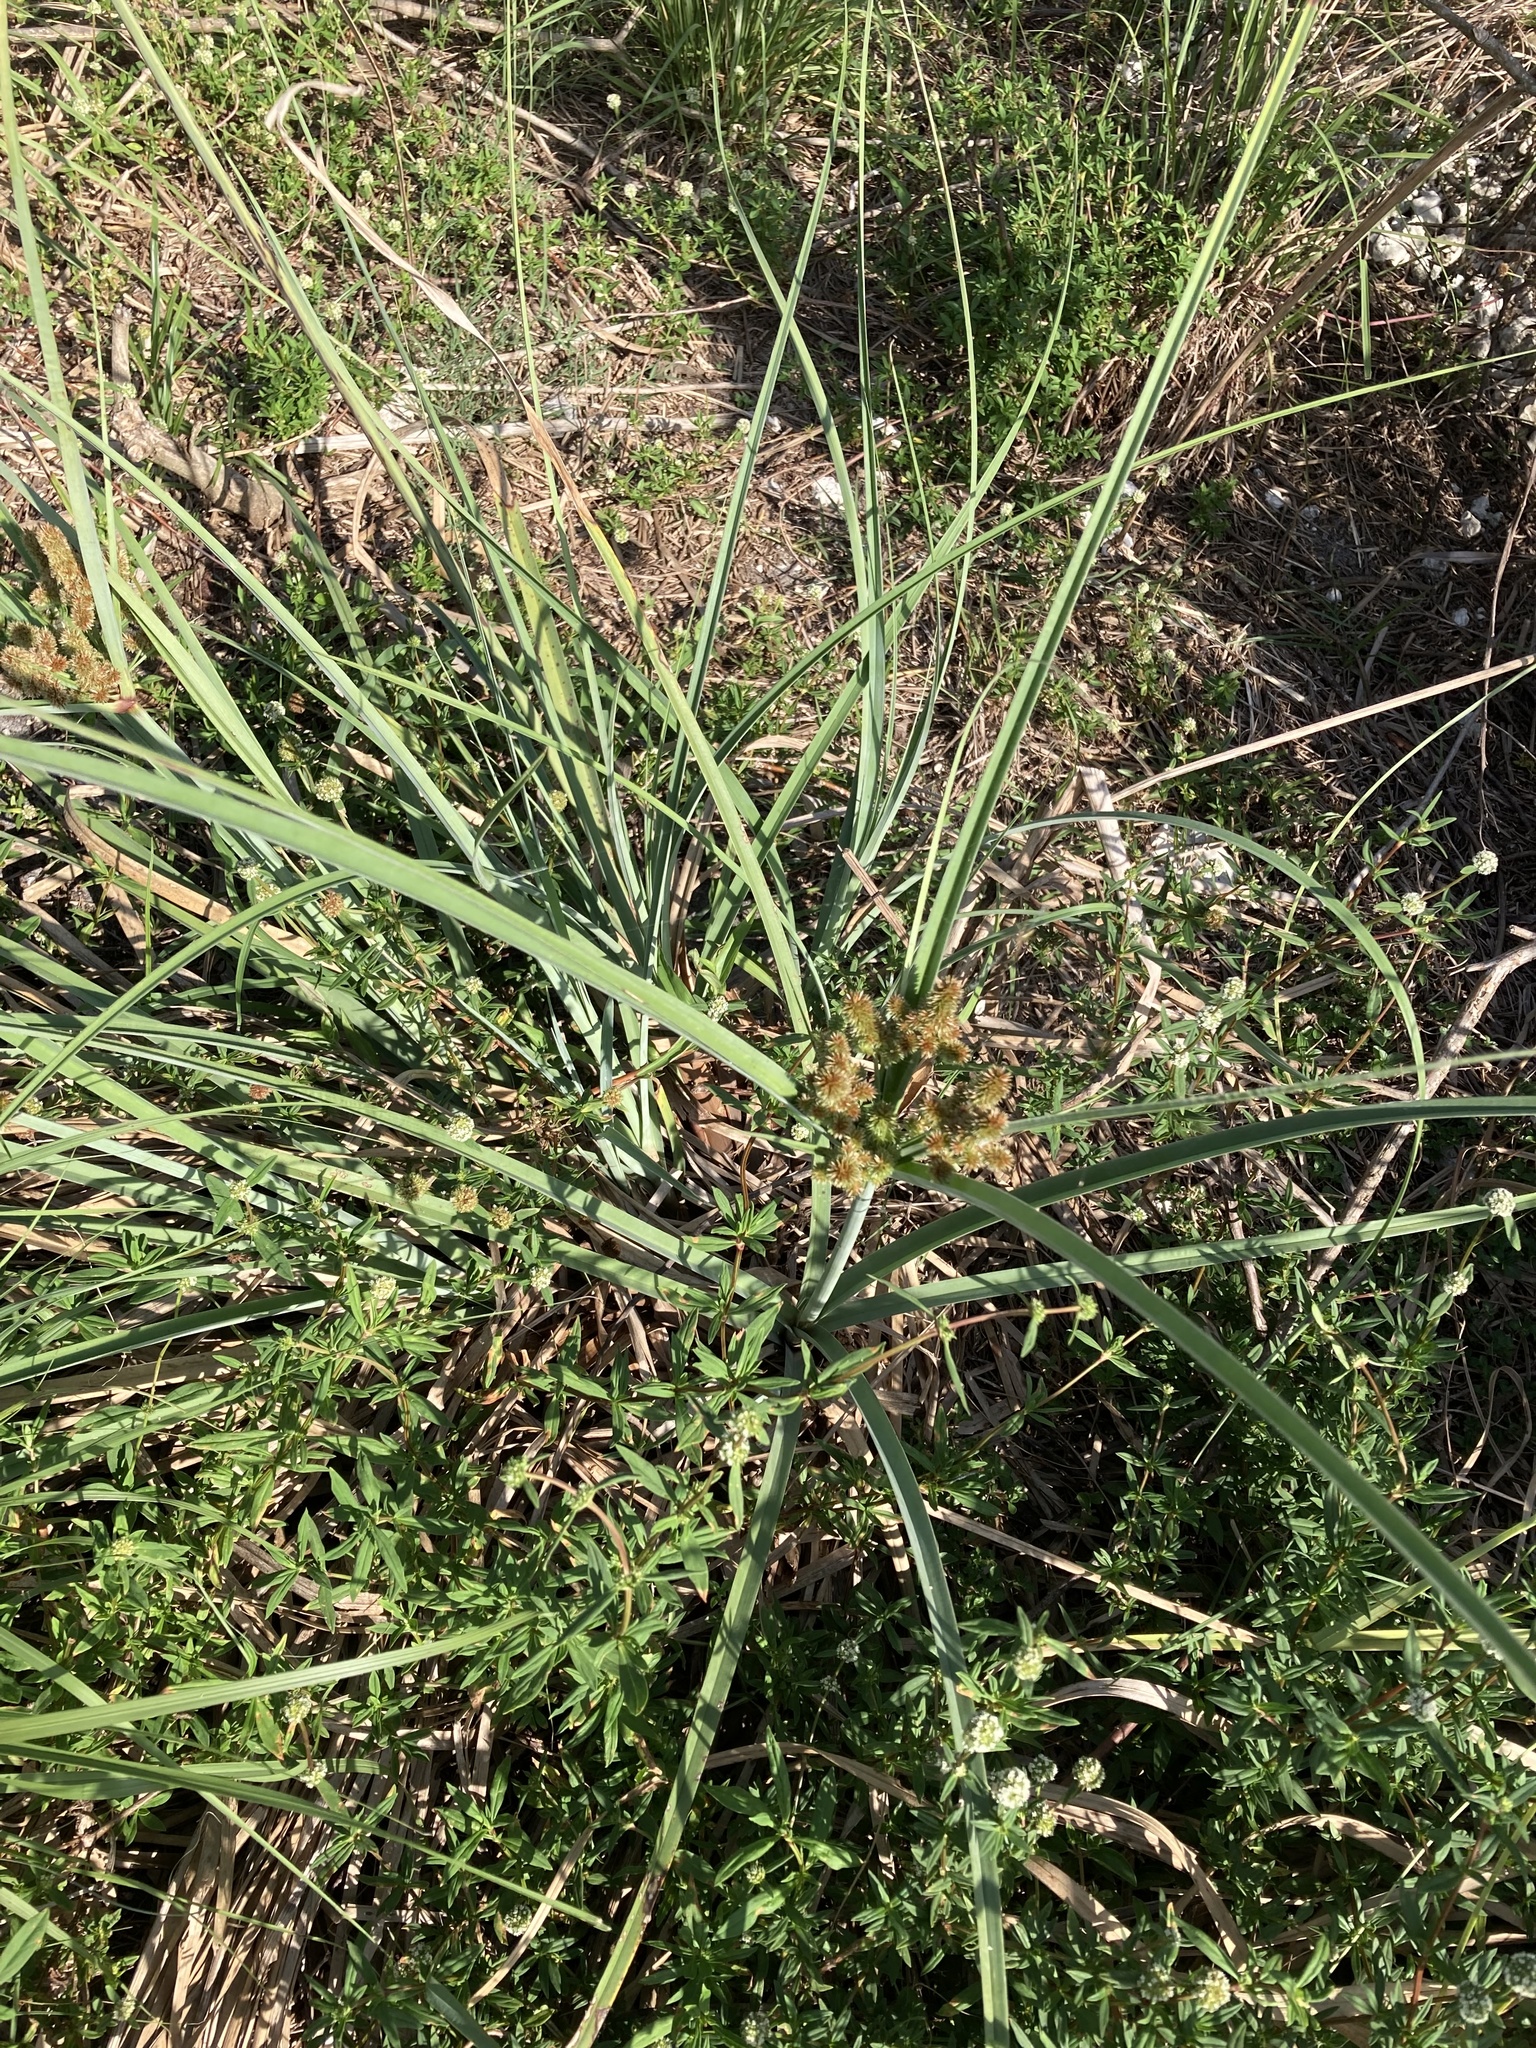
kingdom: Plantae
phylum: Tracheophyta
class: Liliopsida
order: Poales
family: Cyperaceae
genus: Cyperus
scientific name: Cyperus ligularis
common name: Swamp flat sedge
